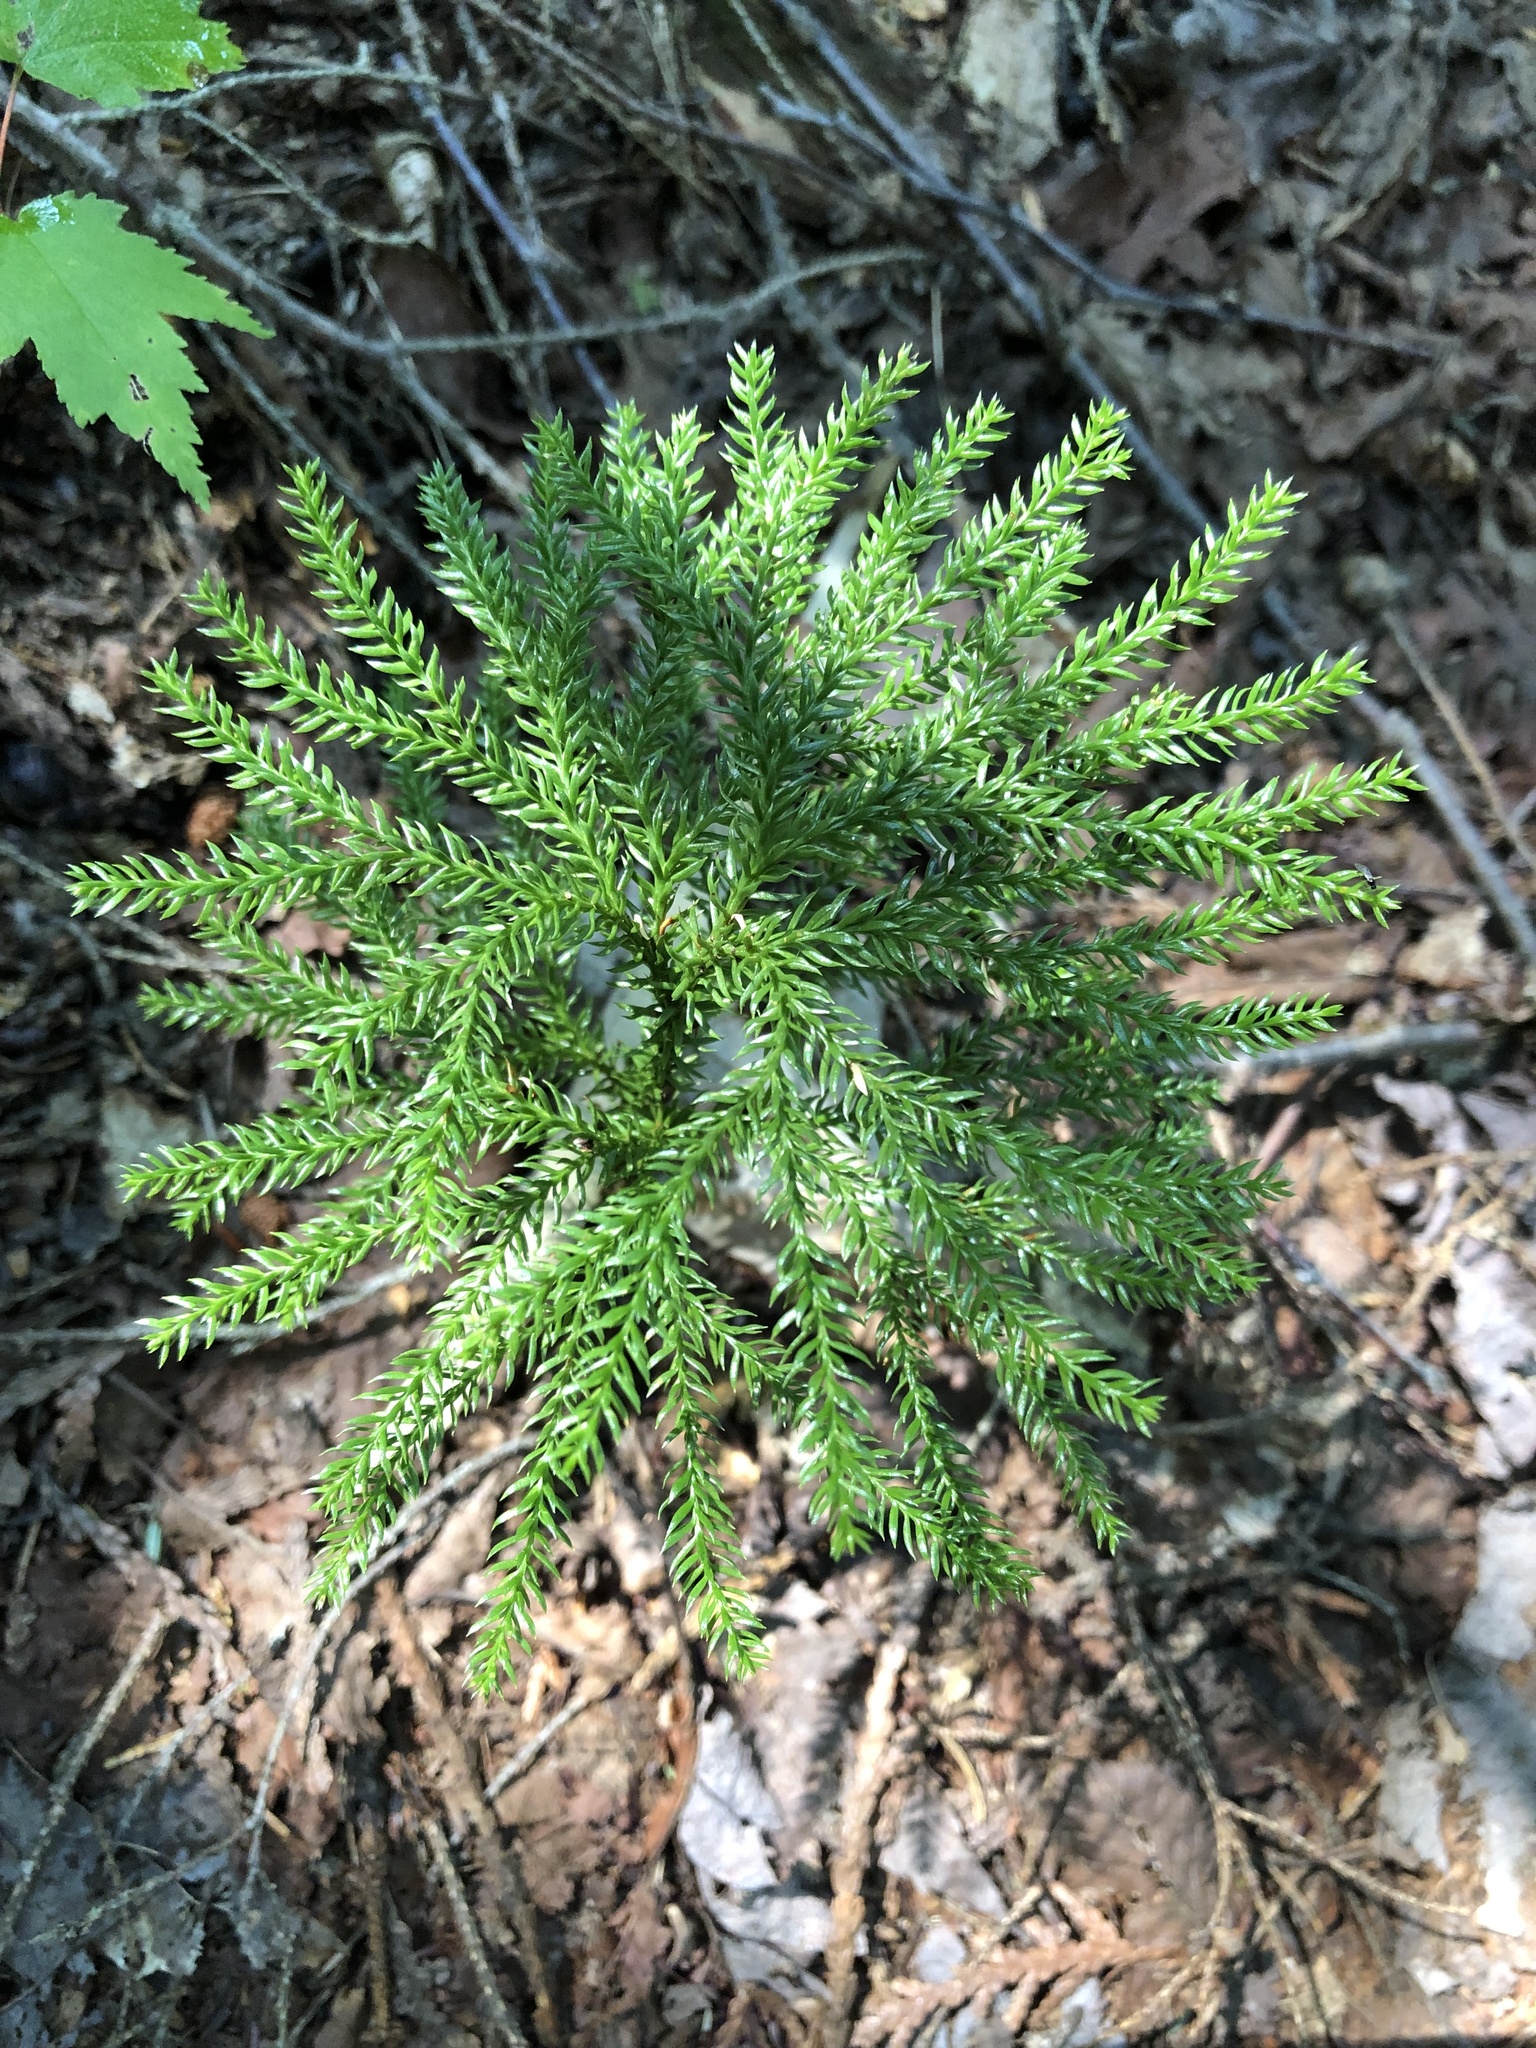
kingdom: Plantae
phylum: Tracheophyta
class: Lycopodiopsida
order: Lycopodiales
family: Lycopodiaceae
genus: Dendrolycopodium
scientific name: Dendrolycopodium dendroideum
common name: Northern tree-clubmoss
